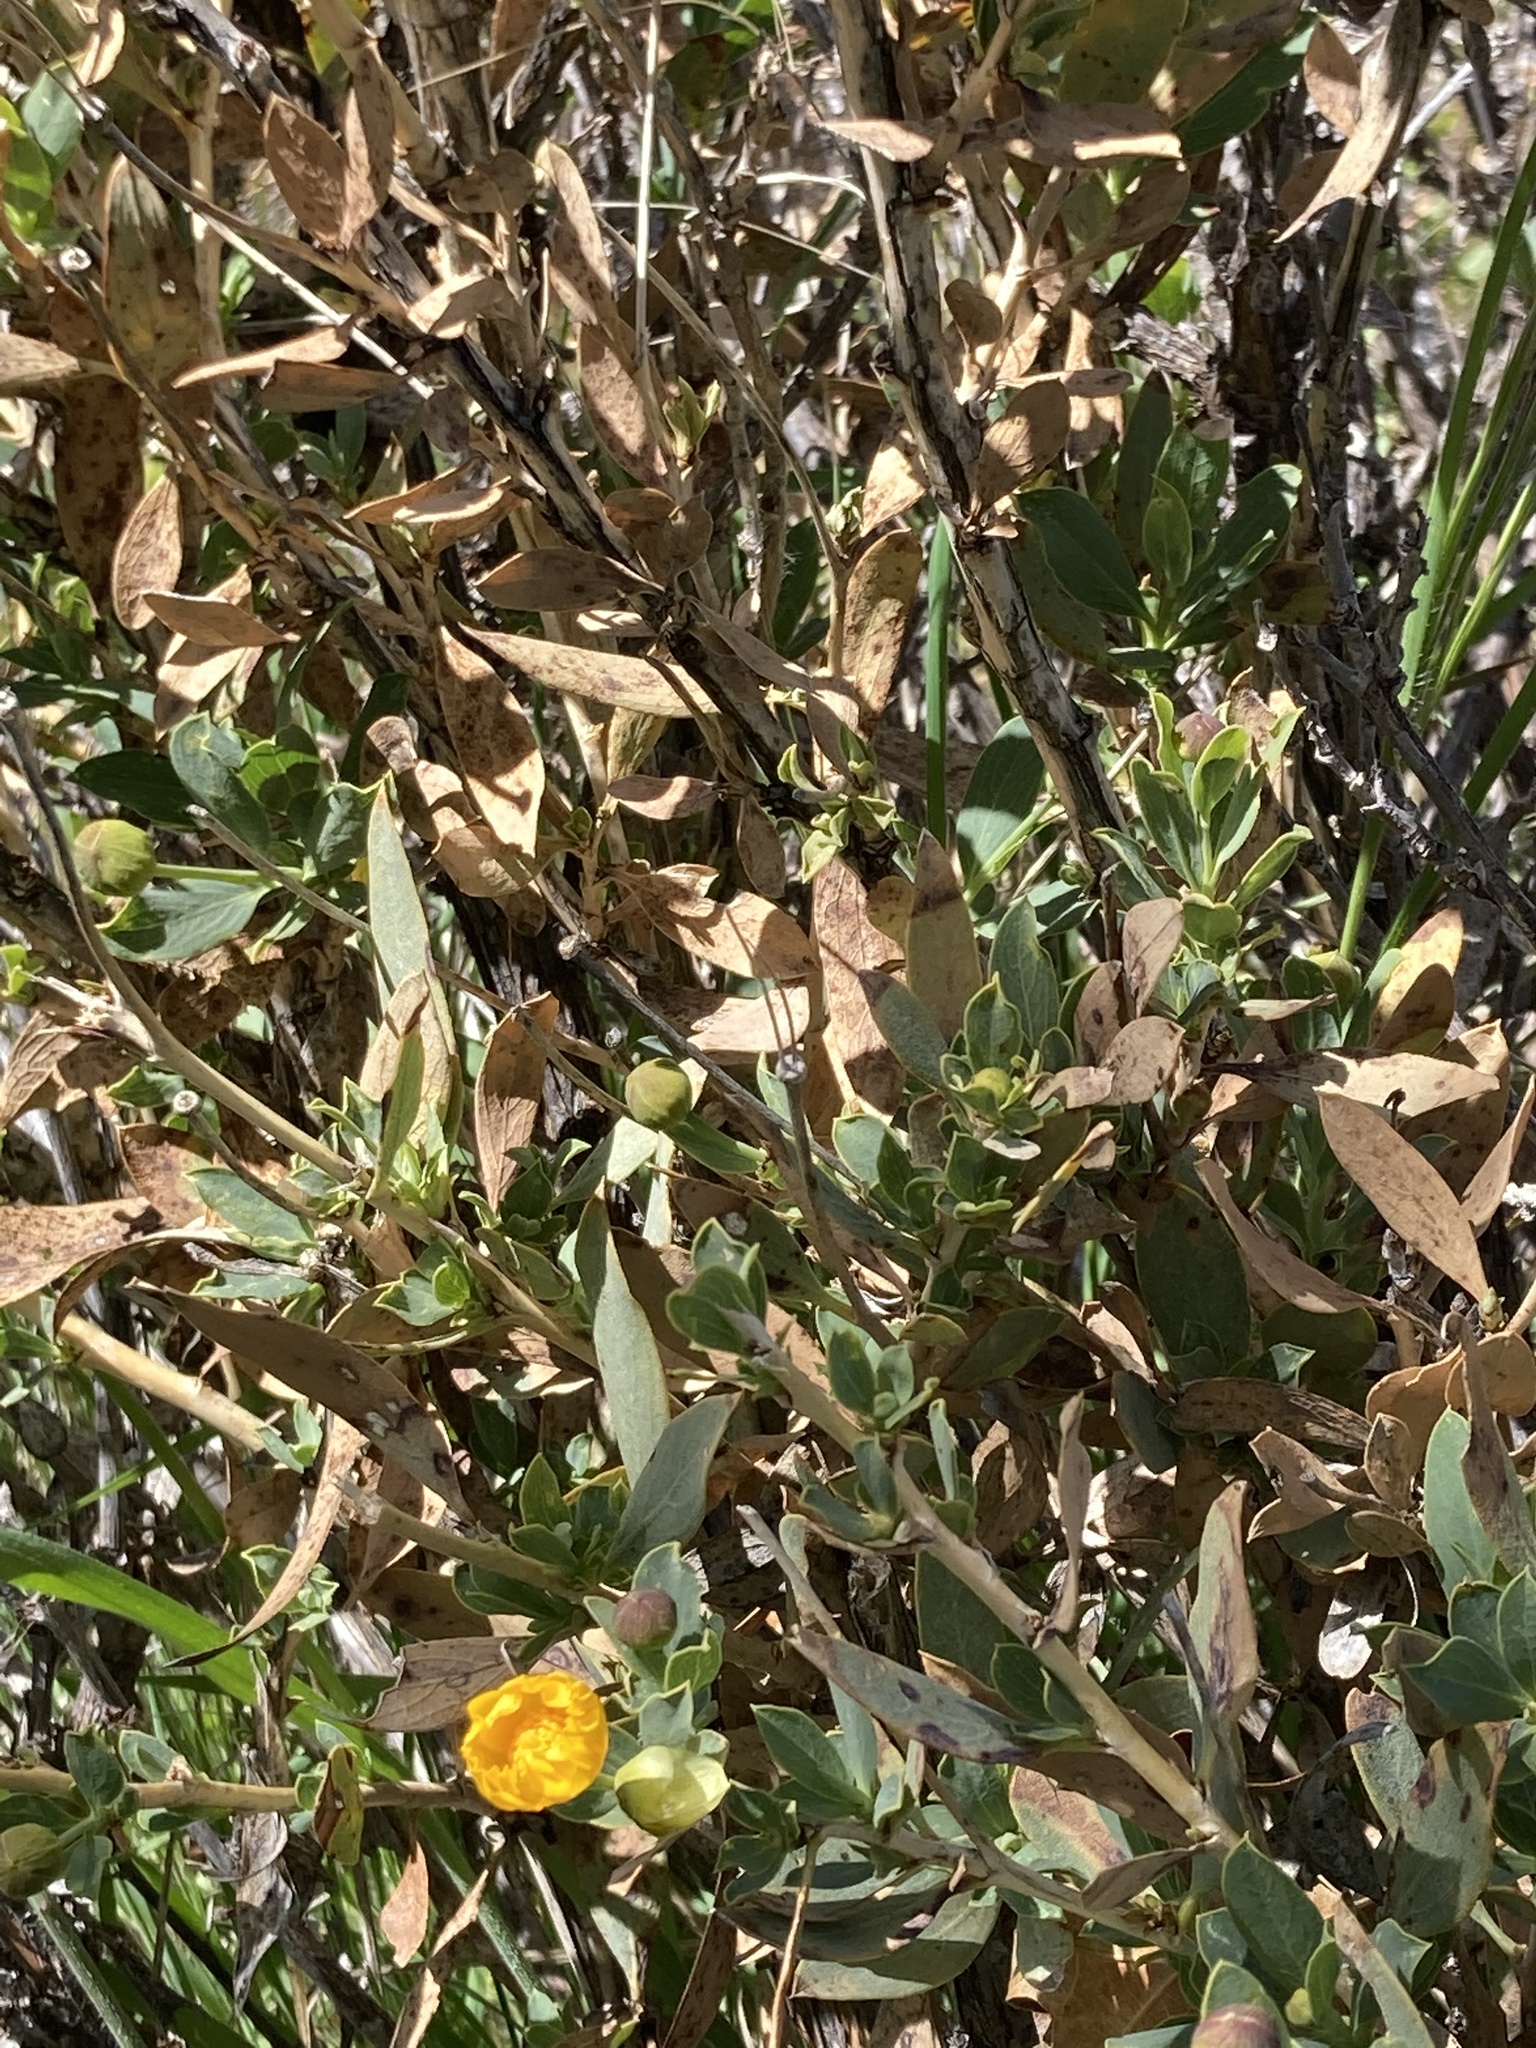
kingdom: Plantae
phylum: Tracheophyta
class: Magnoliopsida
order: Ranunculales
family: Papaveraceae
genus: Dendromecon
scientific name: Dendromecon rigida
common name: Tree poppy
